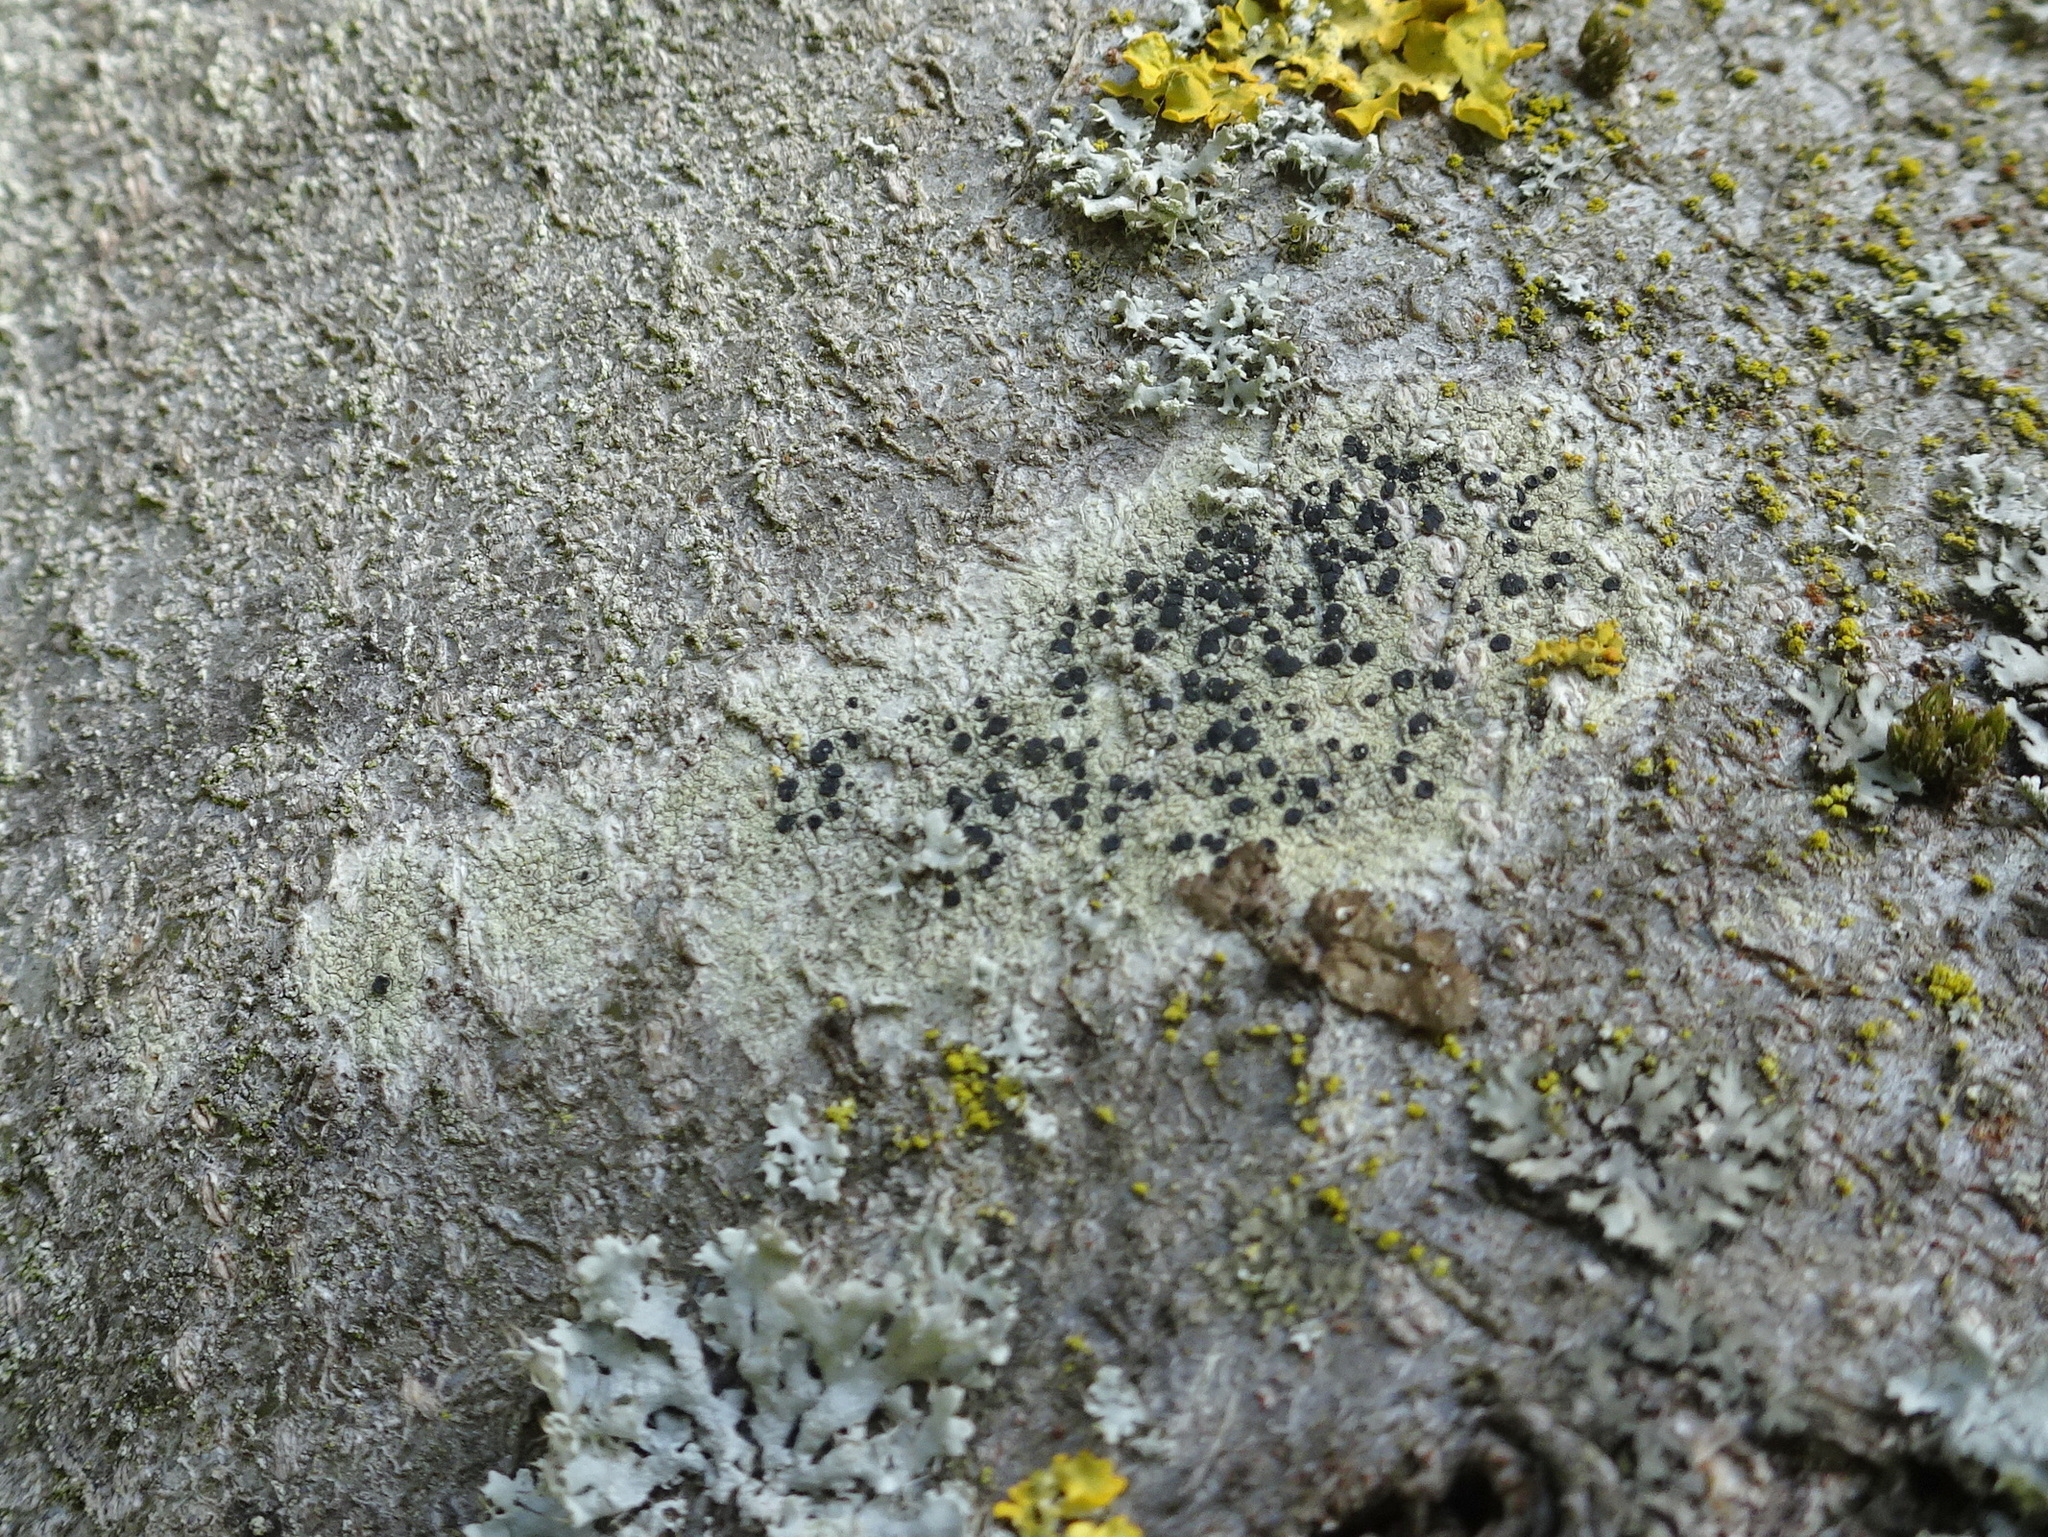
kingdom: Fungi
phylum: Ascomycota
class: Lecanoromycetes
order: Lecanorales
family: Lecanoraceae
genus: Lecidella
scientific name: Lecidella elaeochroma
